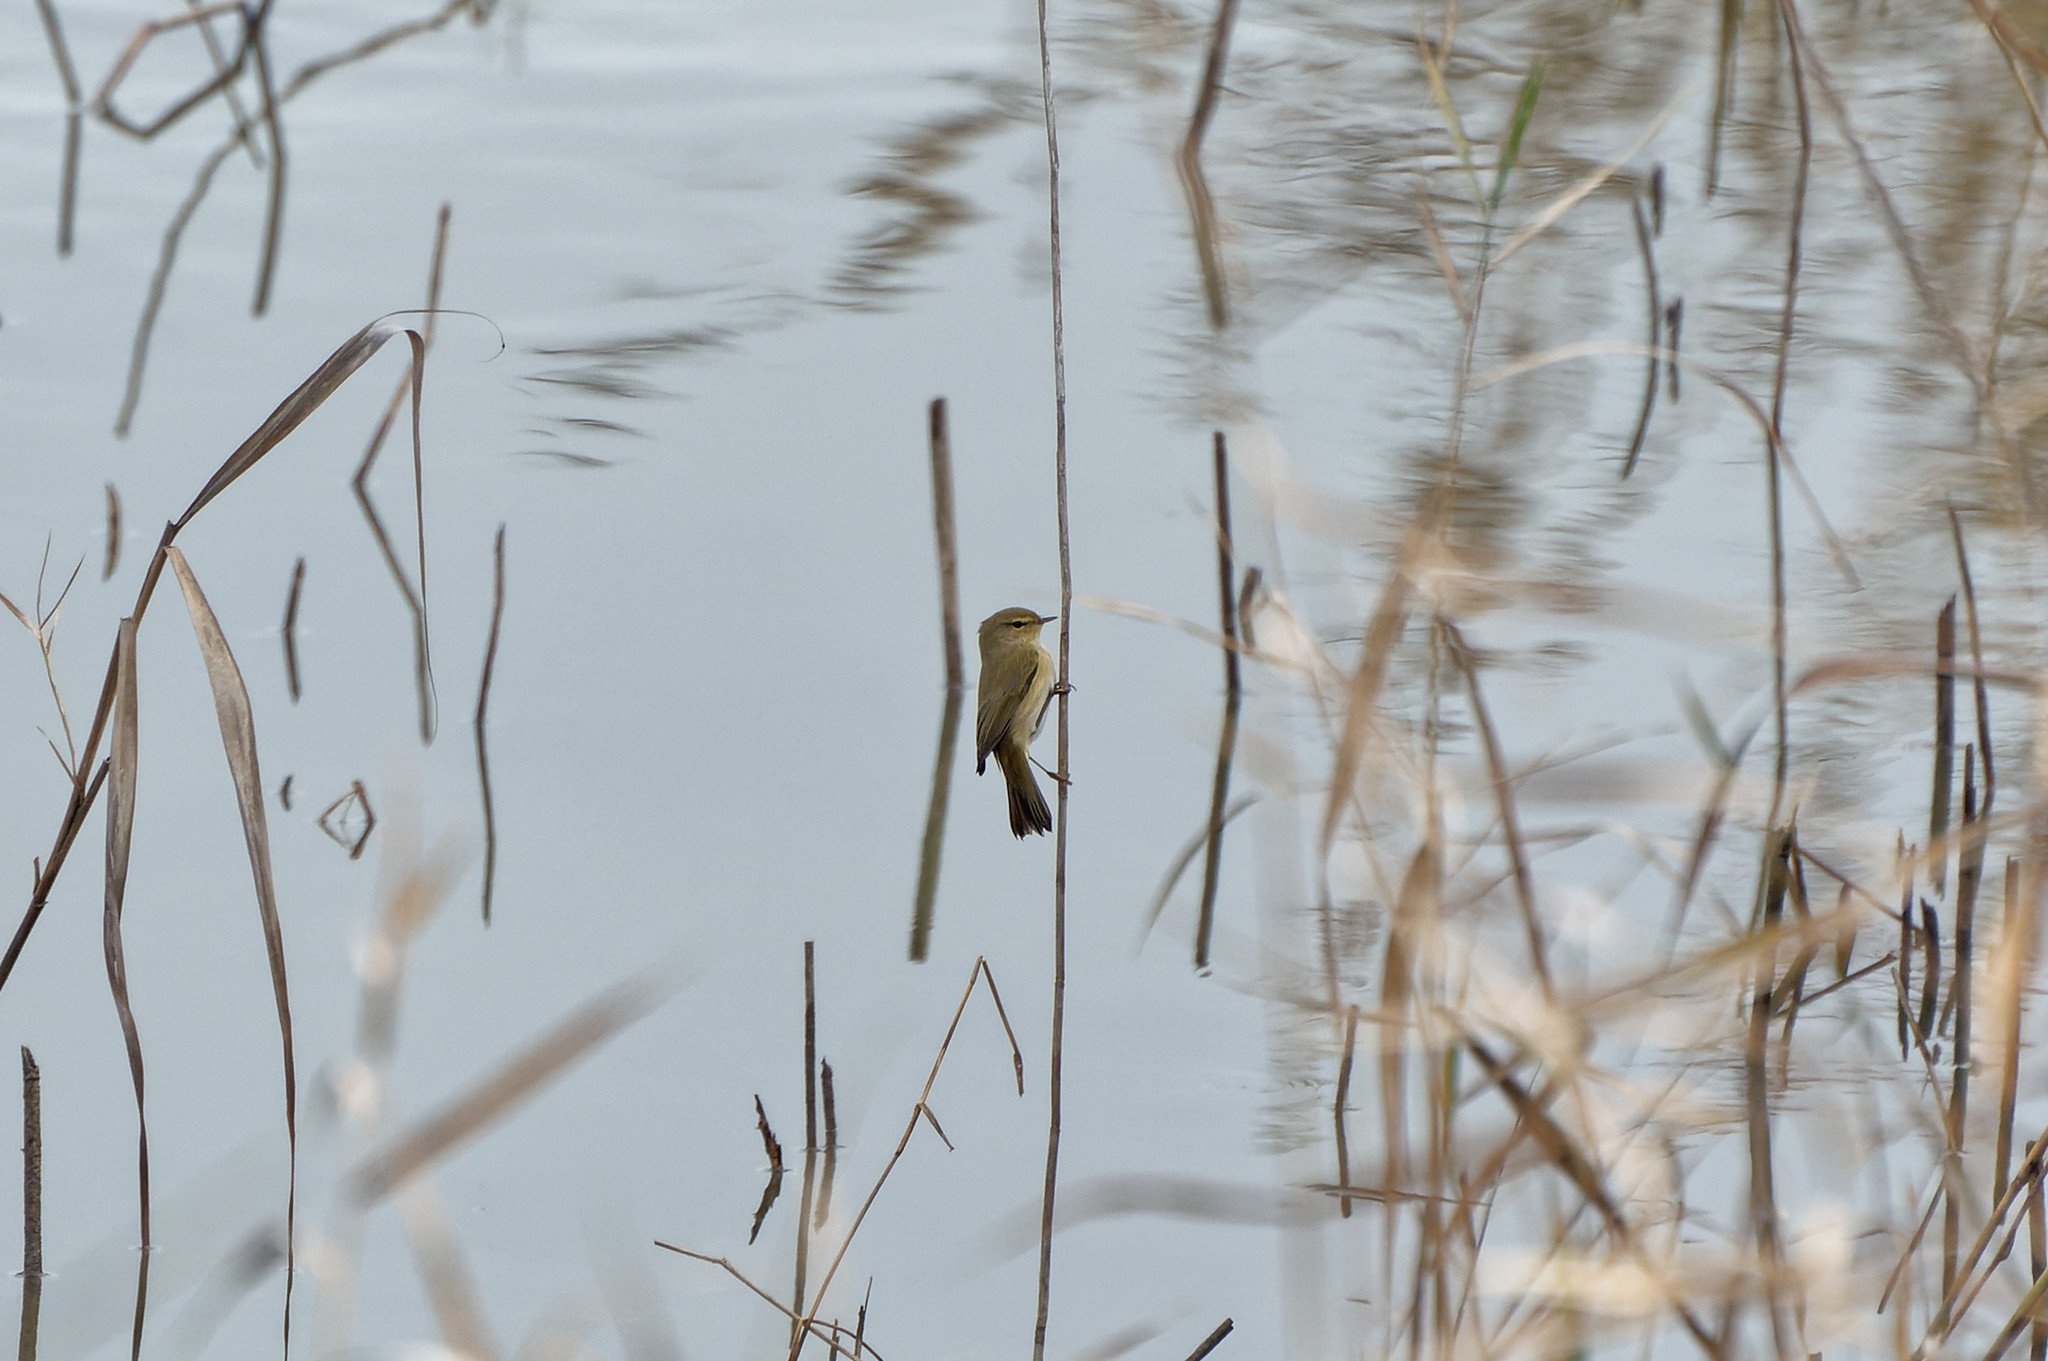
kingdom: Animalia
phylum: Chordata
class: Aves
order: Passeriformes
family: Phylloscopidae
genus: Phylloscopus
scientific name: Phylloscopus collybita
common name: Common chiffchaff
